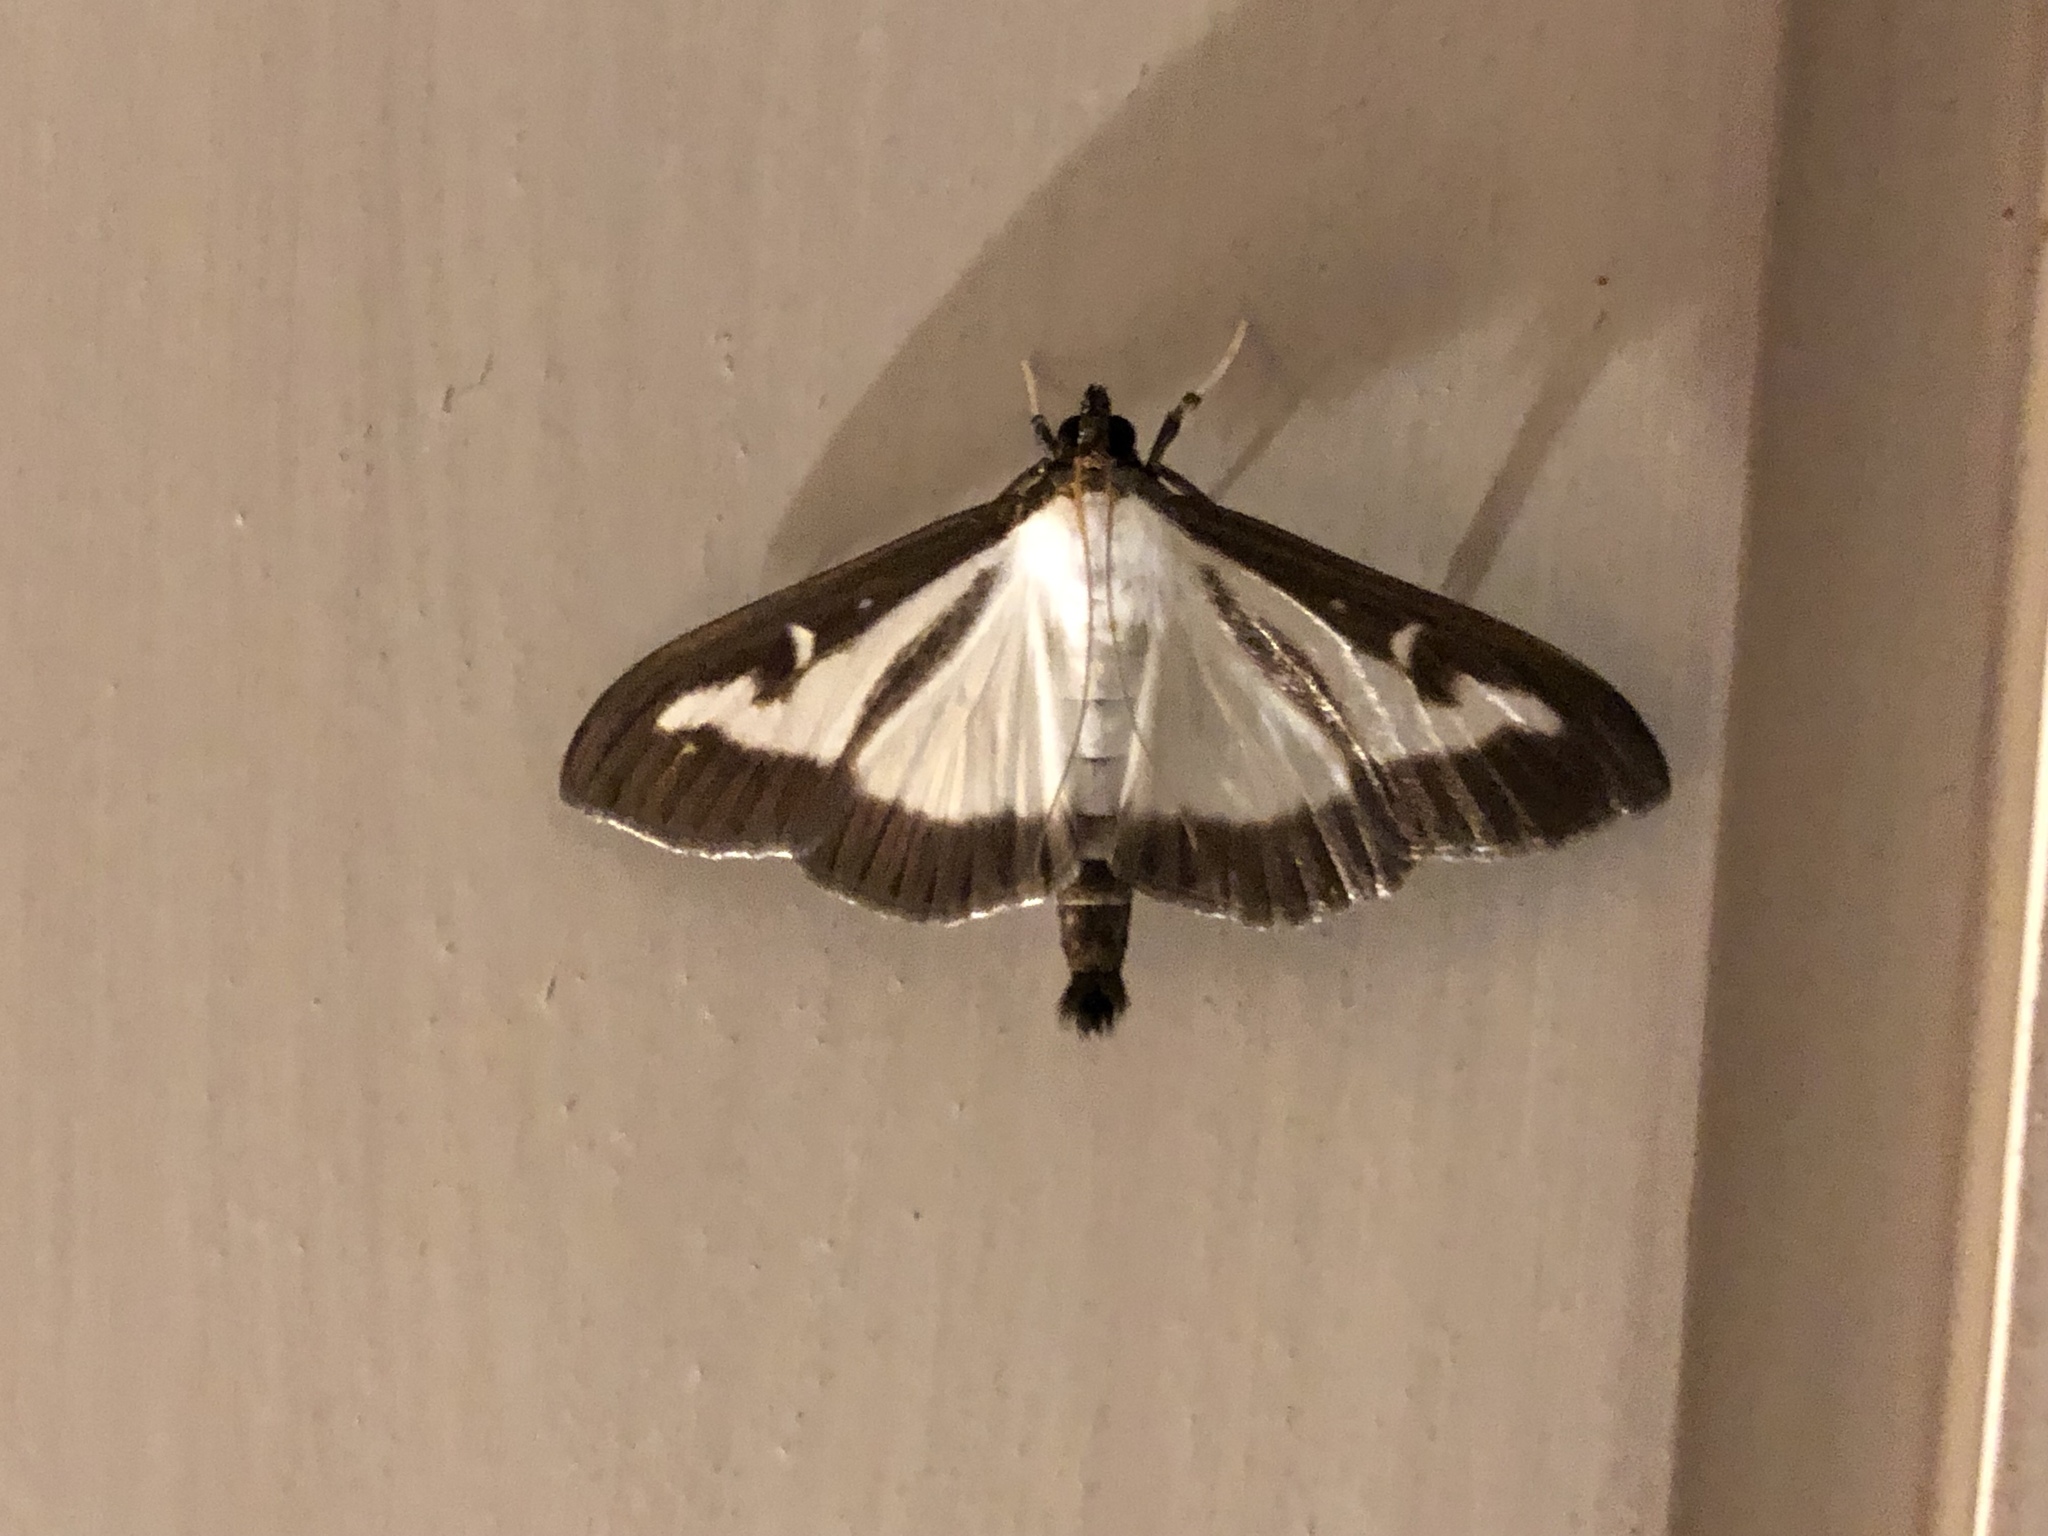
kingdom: Animalia
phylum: Arthropoda
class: Insecta
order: Lepidoptera
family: Crambidae
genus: Cydalima
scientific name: Cydalima perspectalis
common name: Box tree moth
